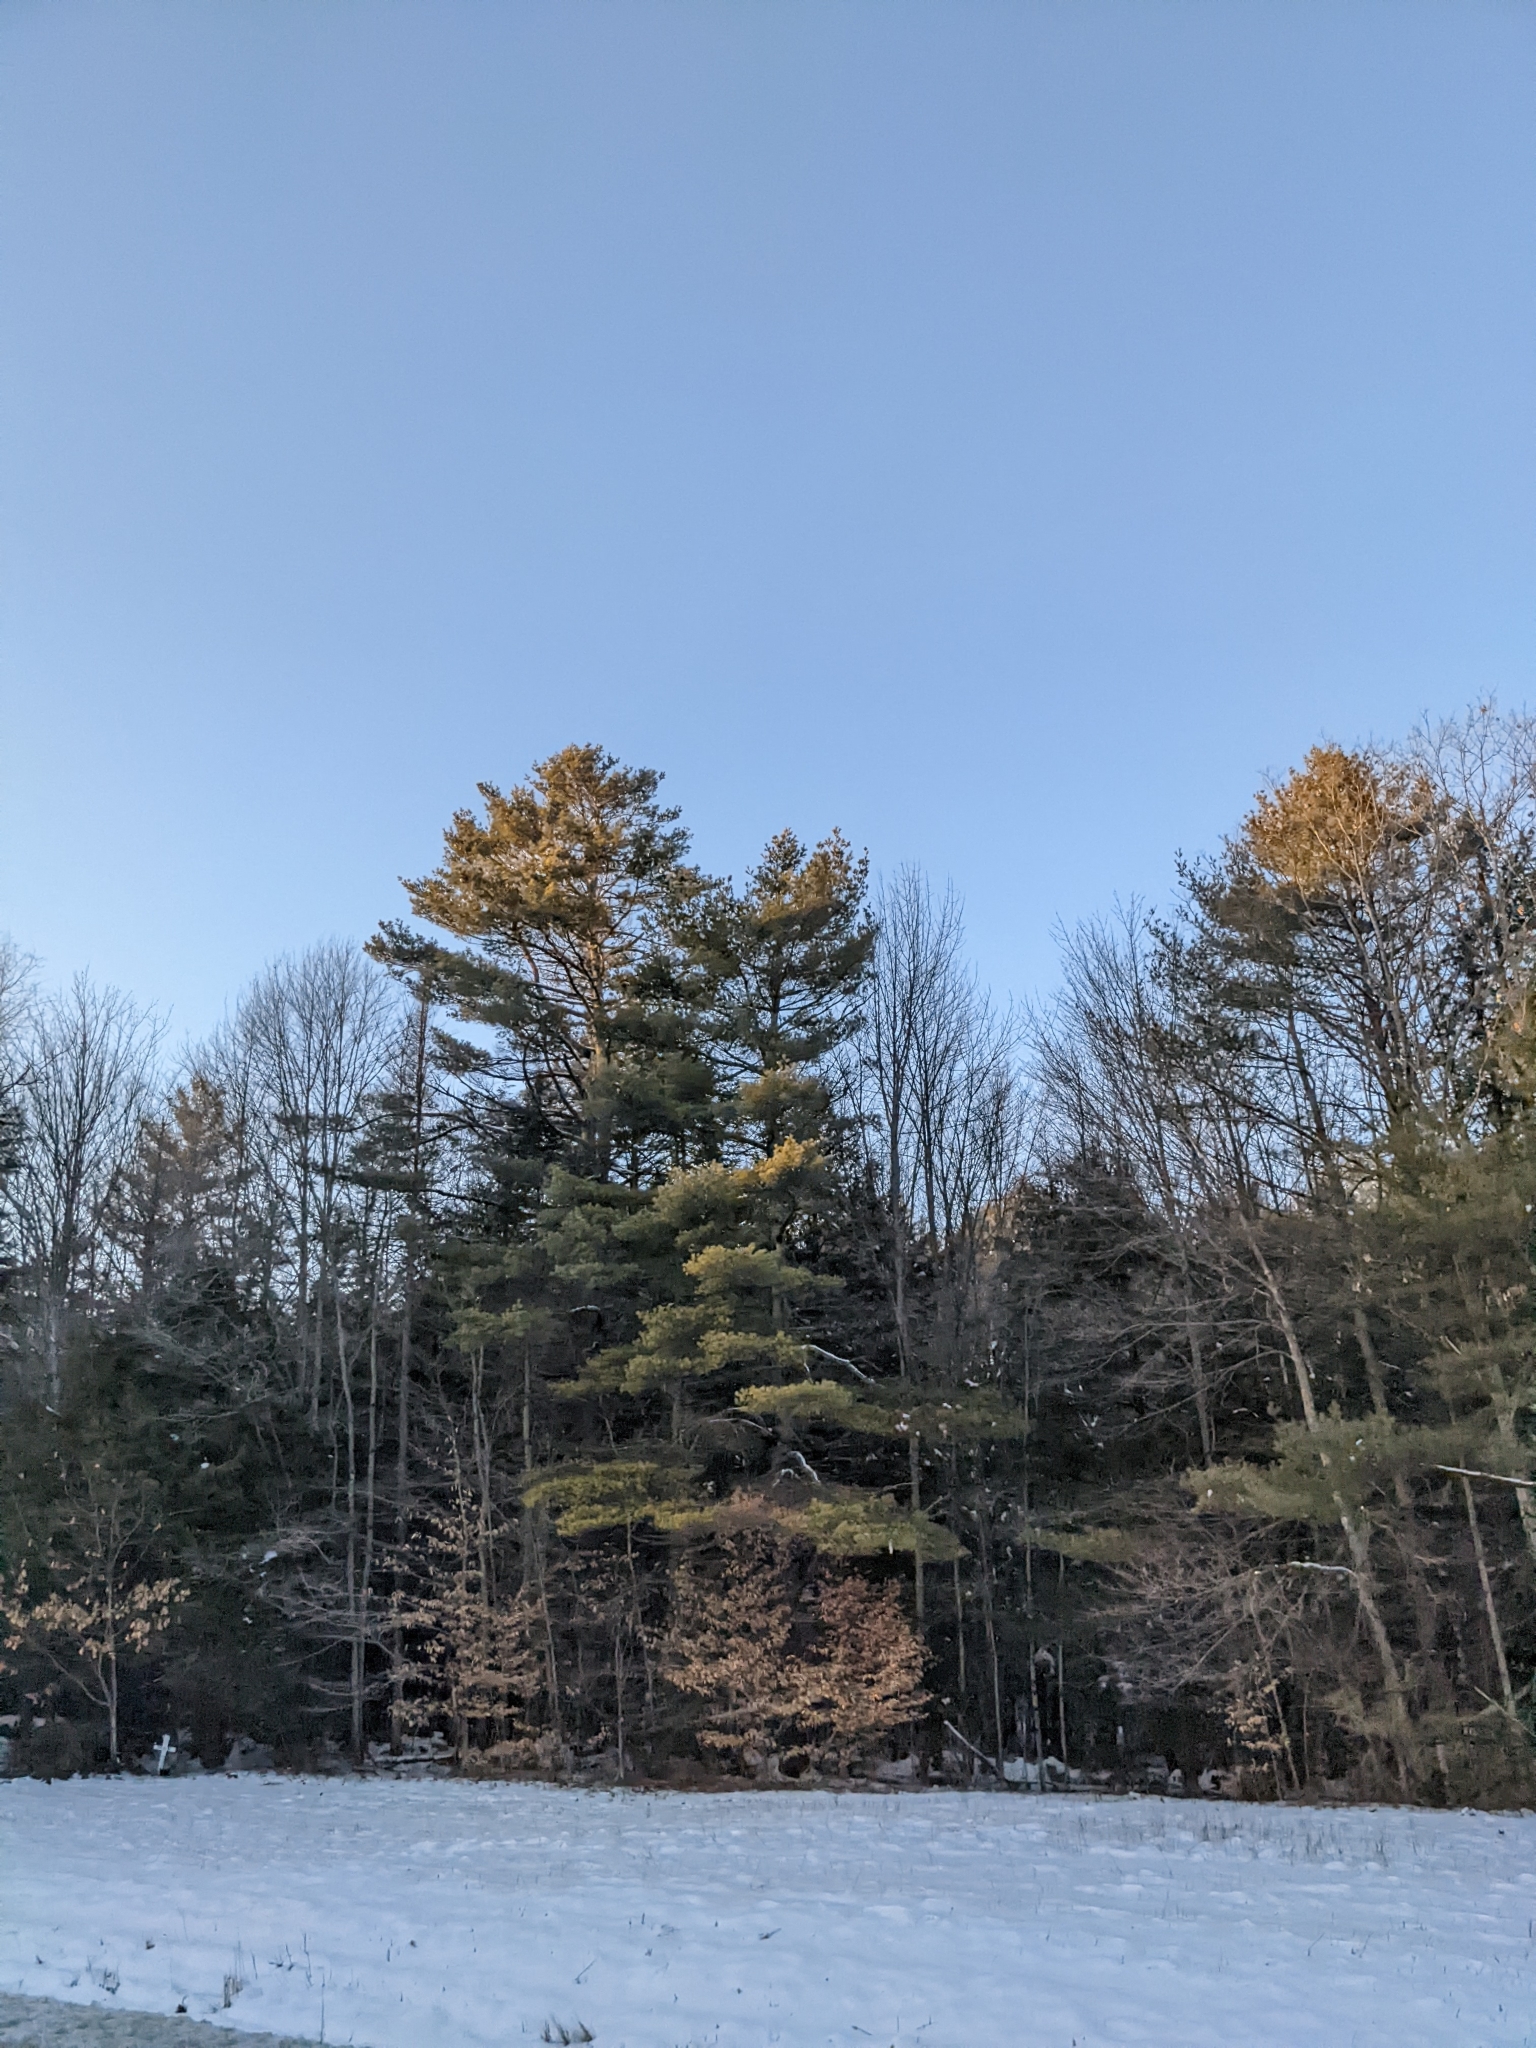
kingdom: Plantae
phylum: Tracheophyta
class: Pinopsida
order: Pinales
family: Pinaceae
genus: Pinus
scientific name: Pinus strobus
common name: Weymouth pine
